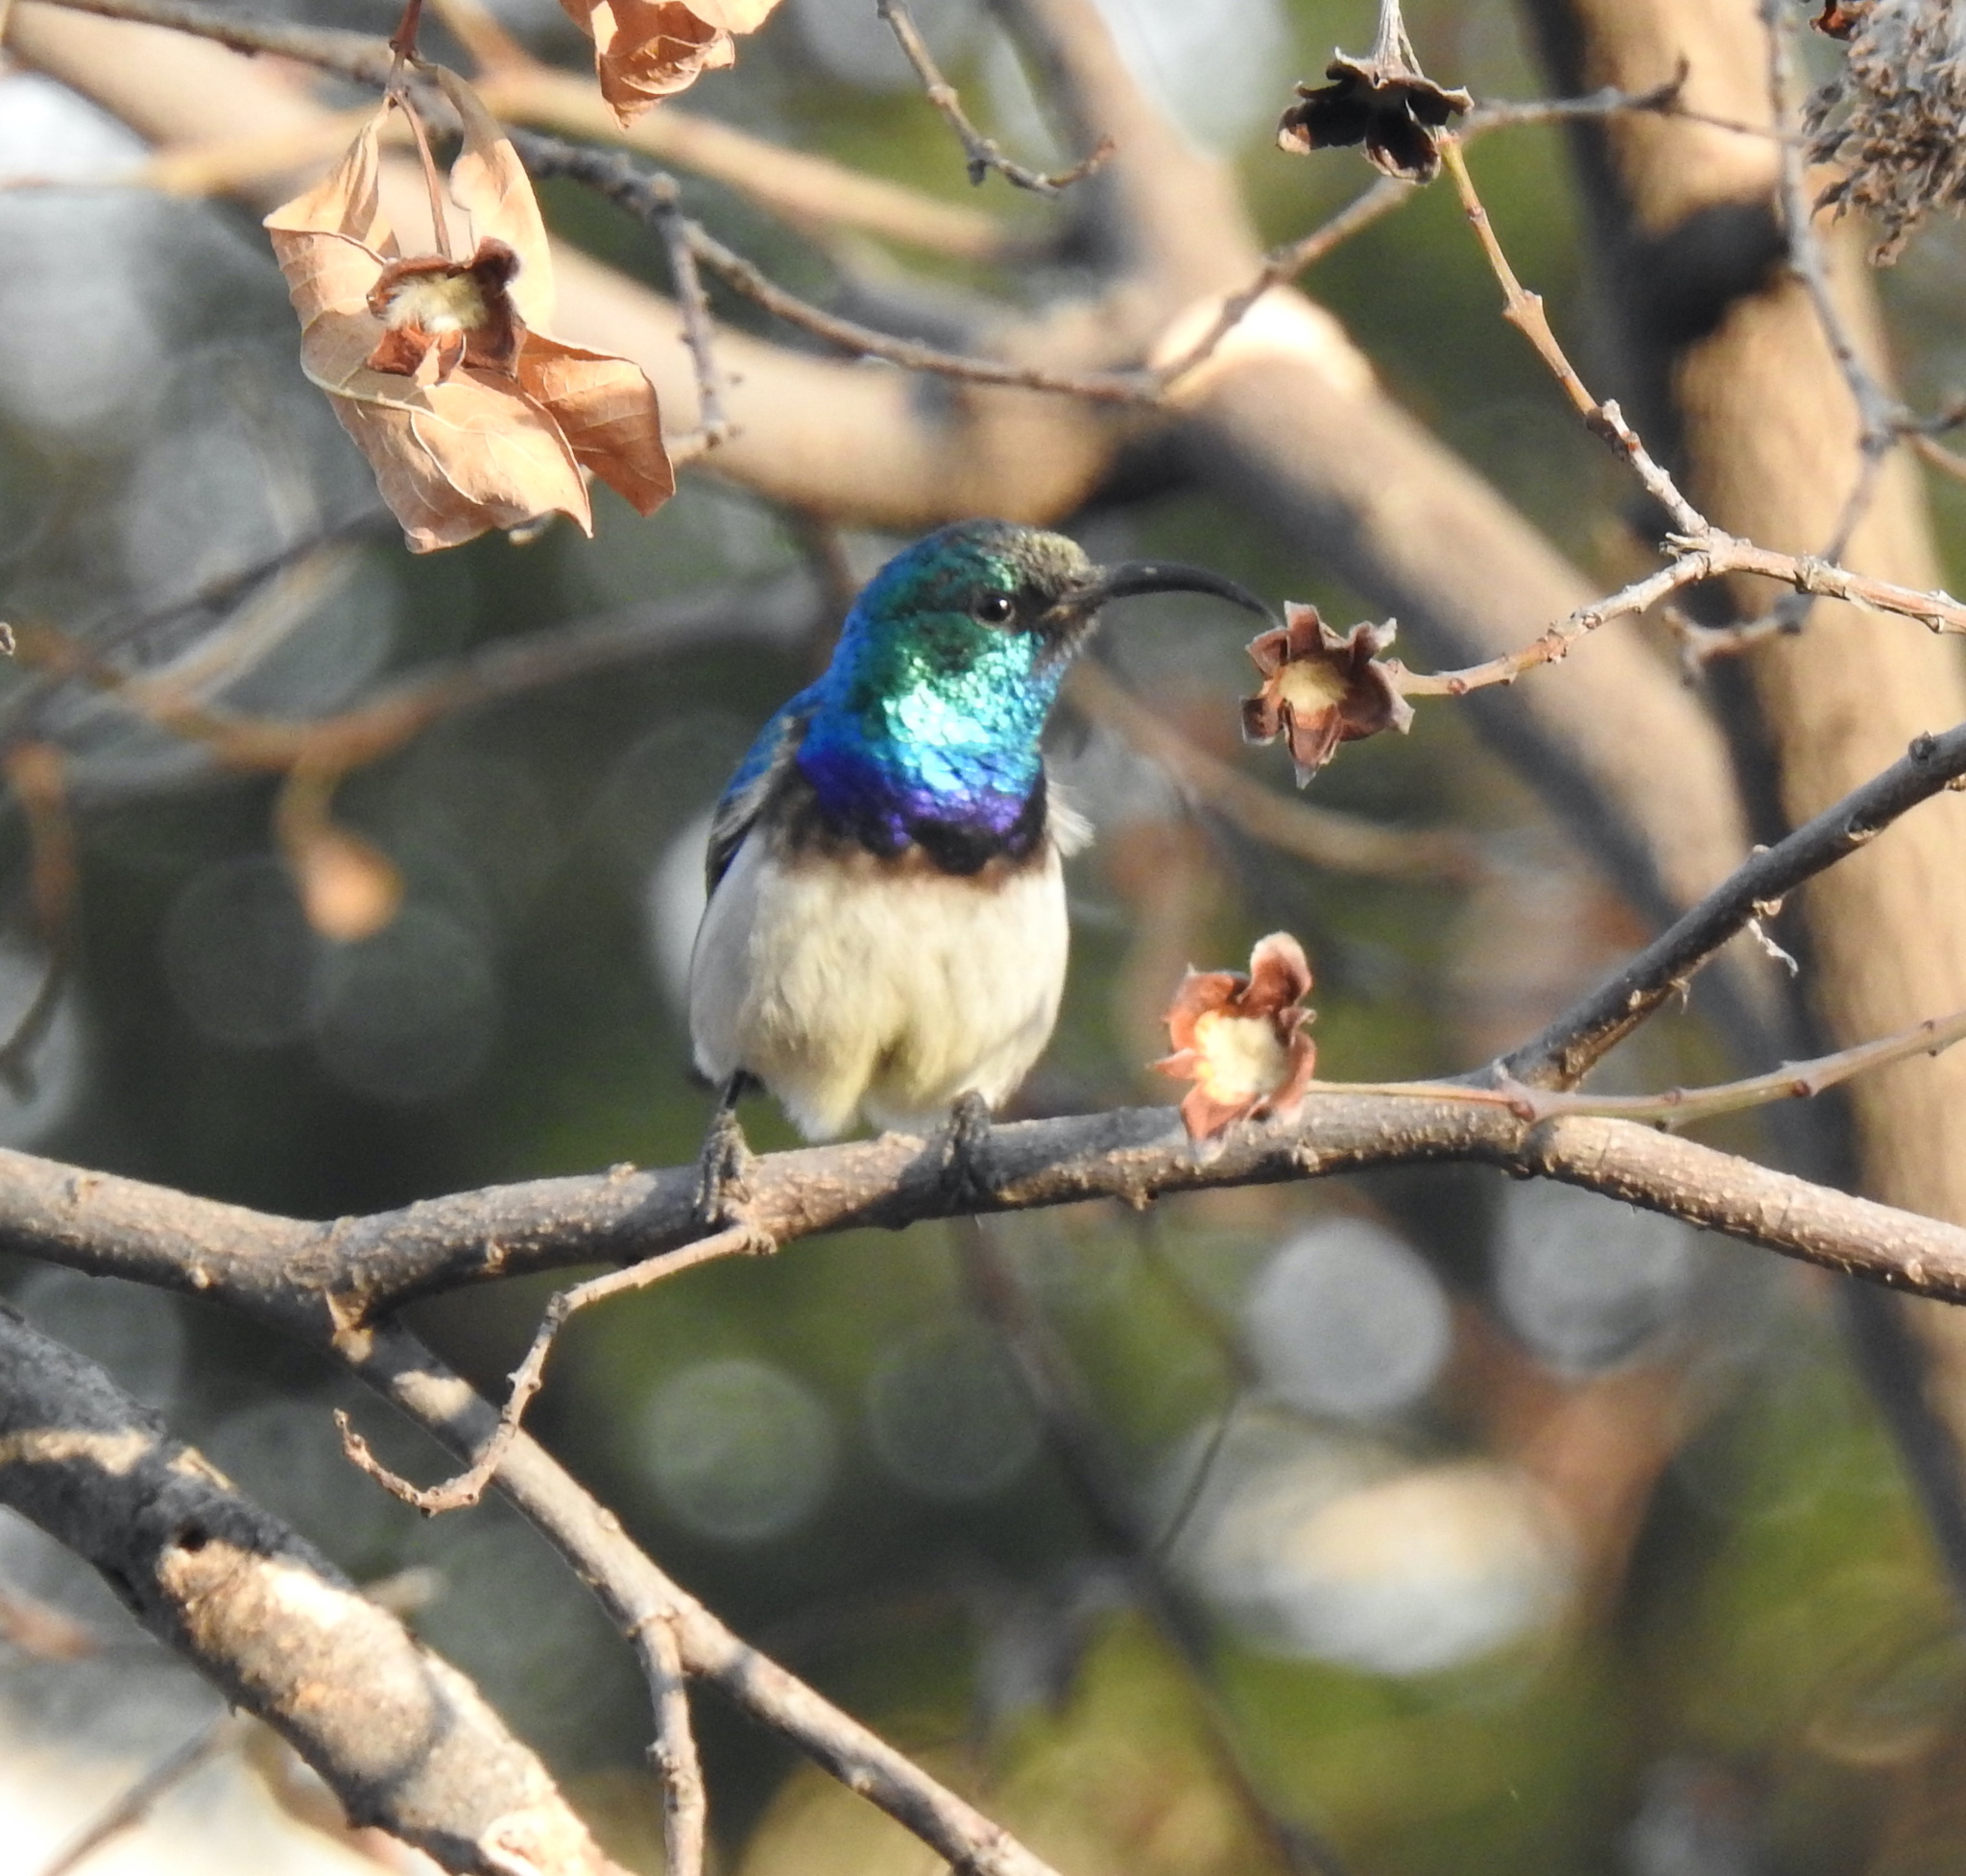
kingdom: Animalia
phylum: Chordata
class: Aves
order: Passeriformes
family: Nectariniidae
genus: Cinnyris
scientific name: Cinnyris talatala
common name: White-bellied sunbird
